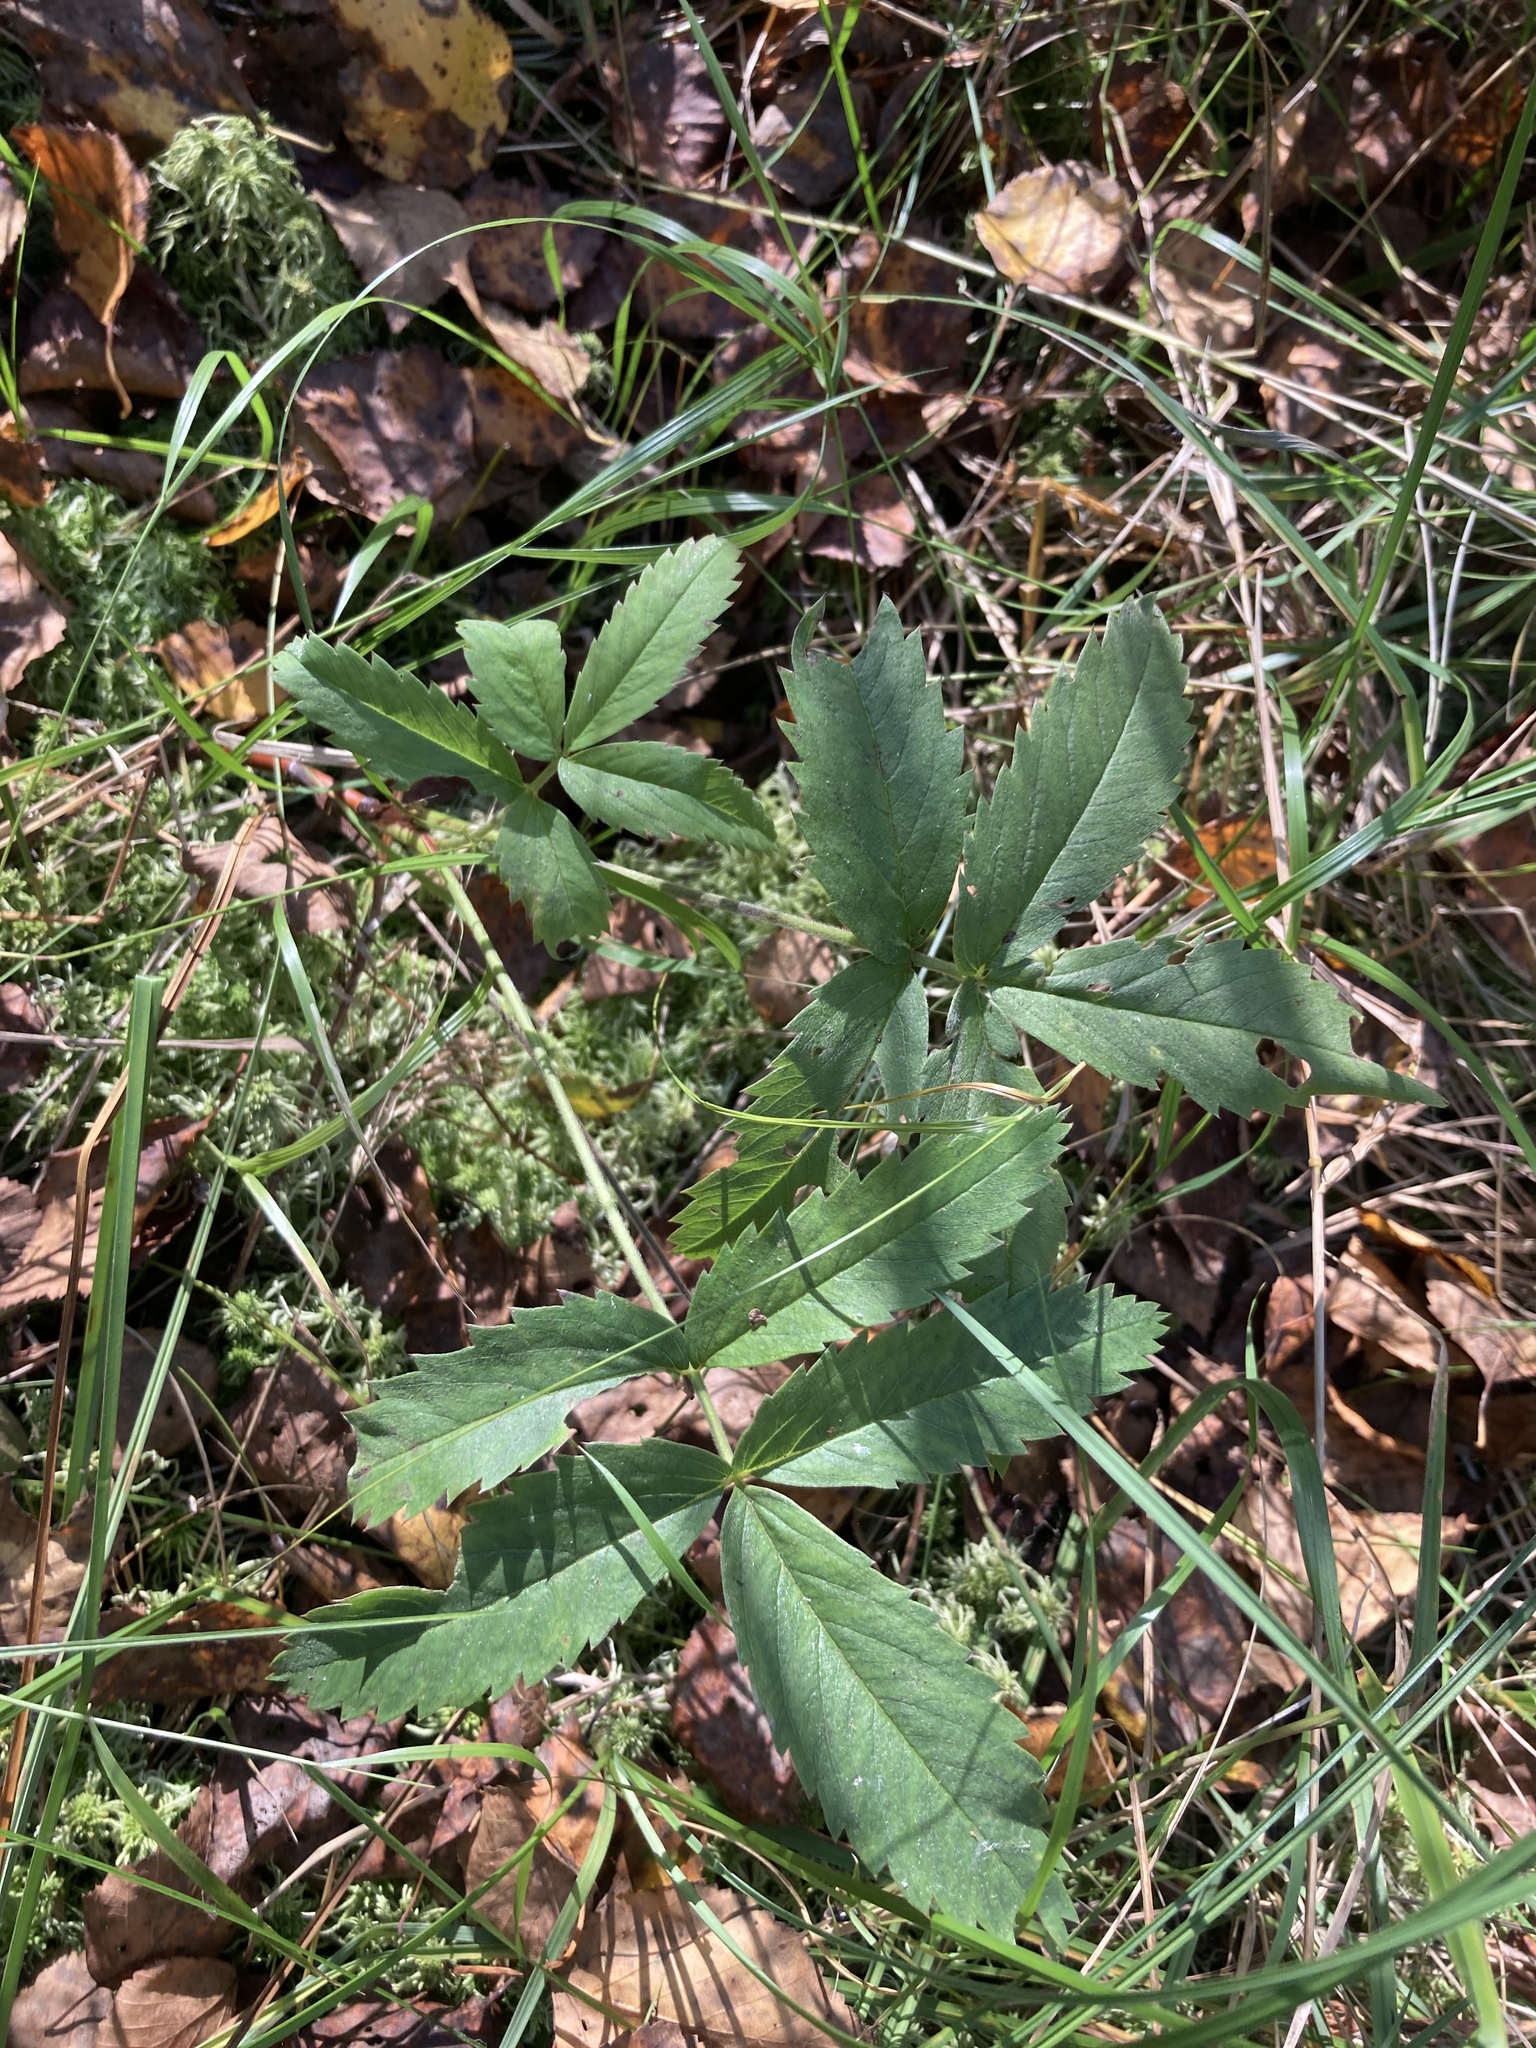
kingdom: Plantae
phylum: Tracheophyta
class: Magnoliopsida
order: Rosales
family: Rosaceae
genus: Comarum
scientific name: Comarum palustre
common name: Marsh cinquefoil
